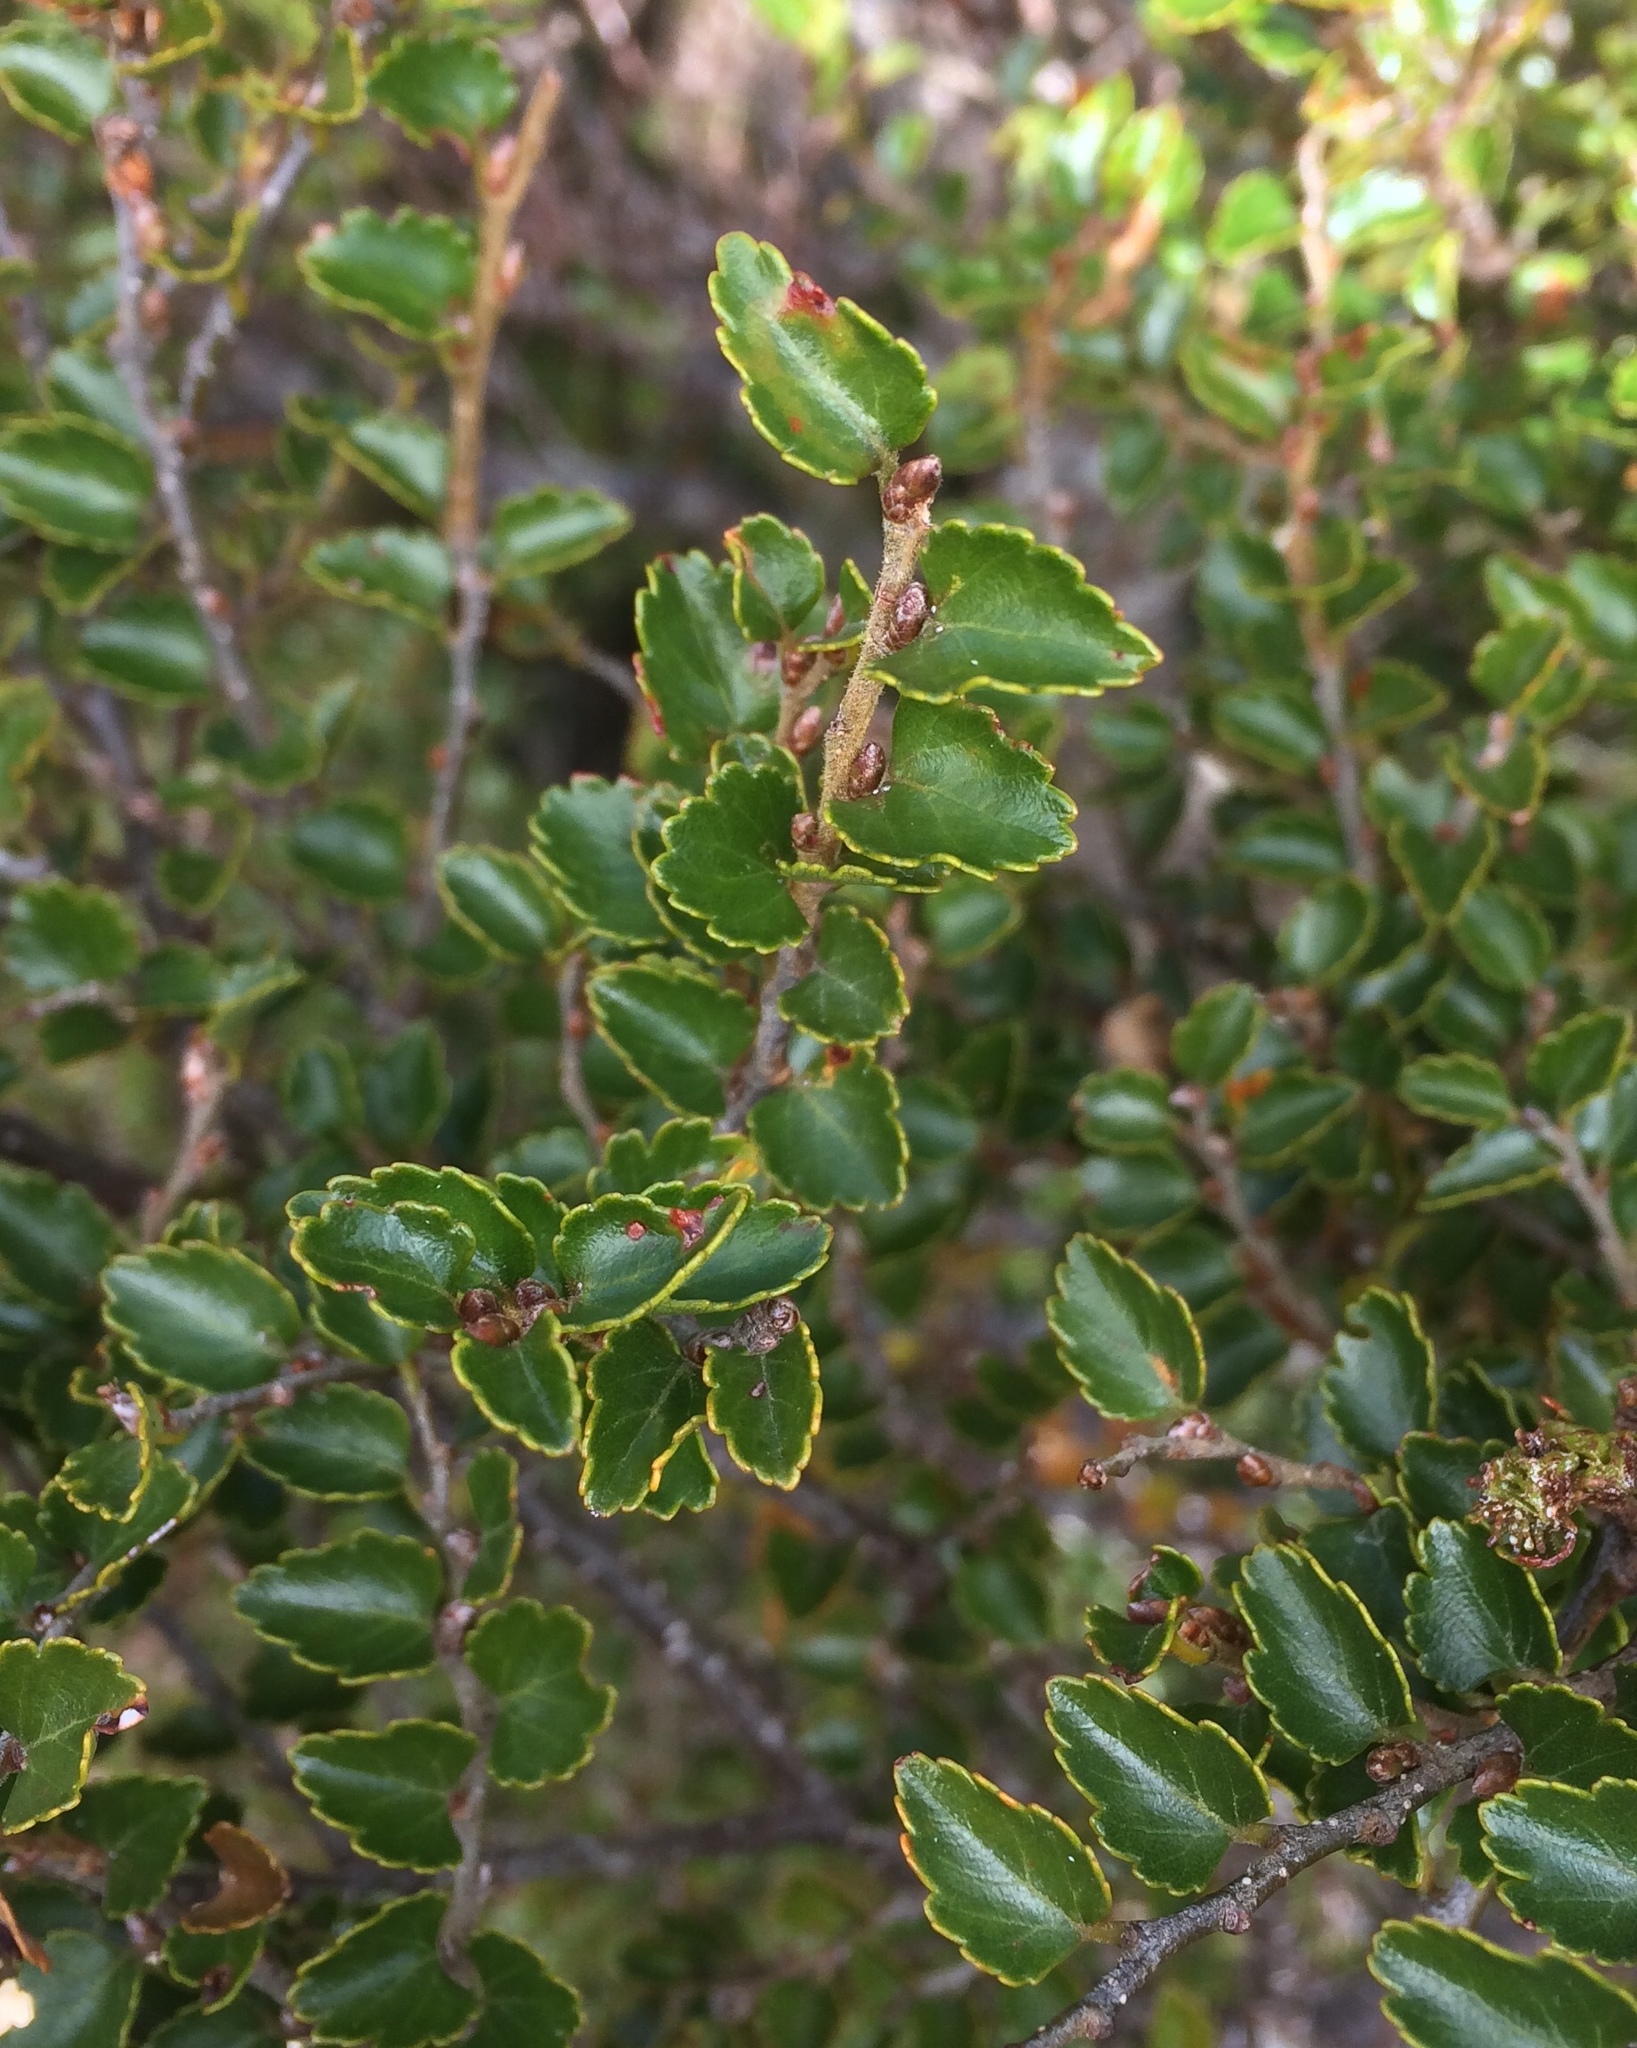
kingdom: Plantae
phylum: Tracheophyta
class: Magnoliopsida
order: Fagales
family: Nothofagaceae
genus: Nothofagus
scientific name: Nothofagus menziesii
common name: Silver beech
